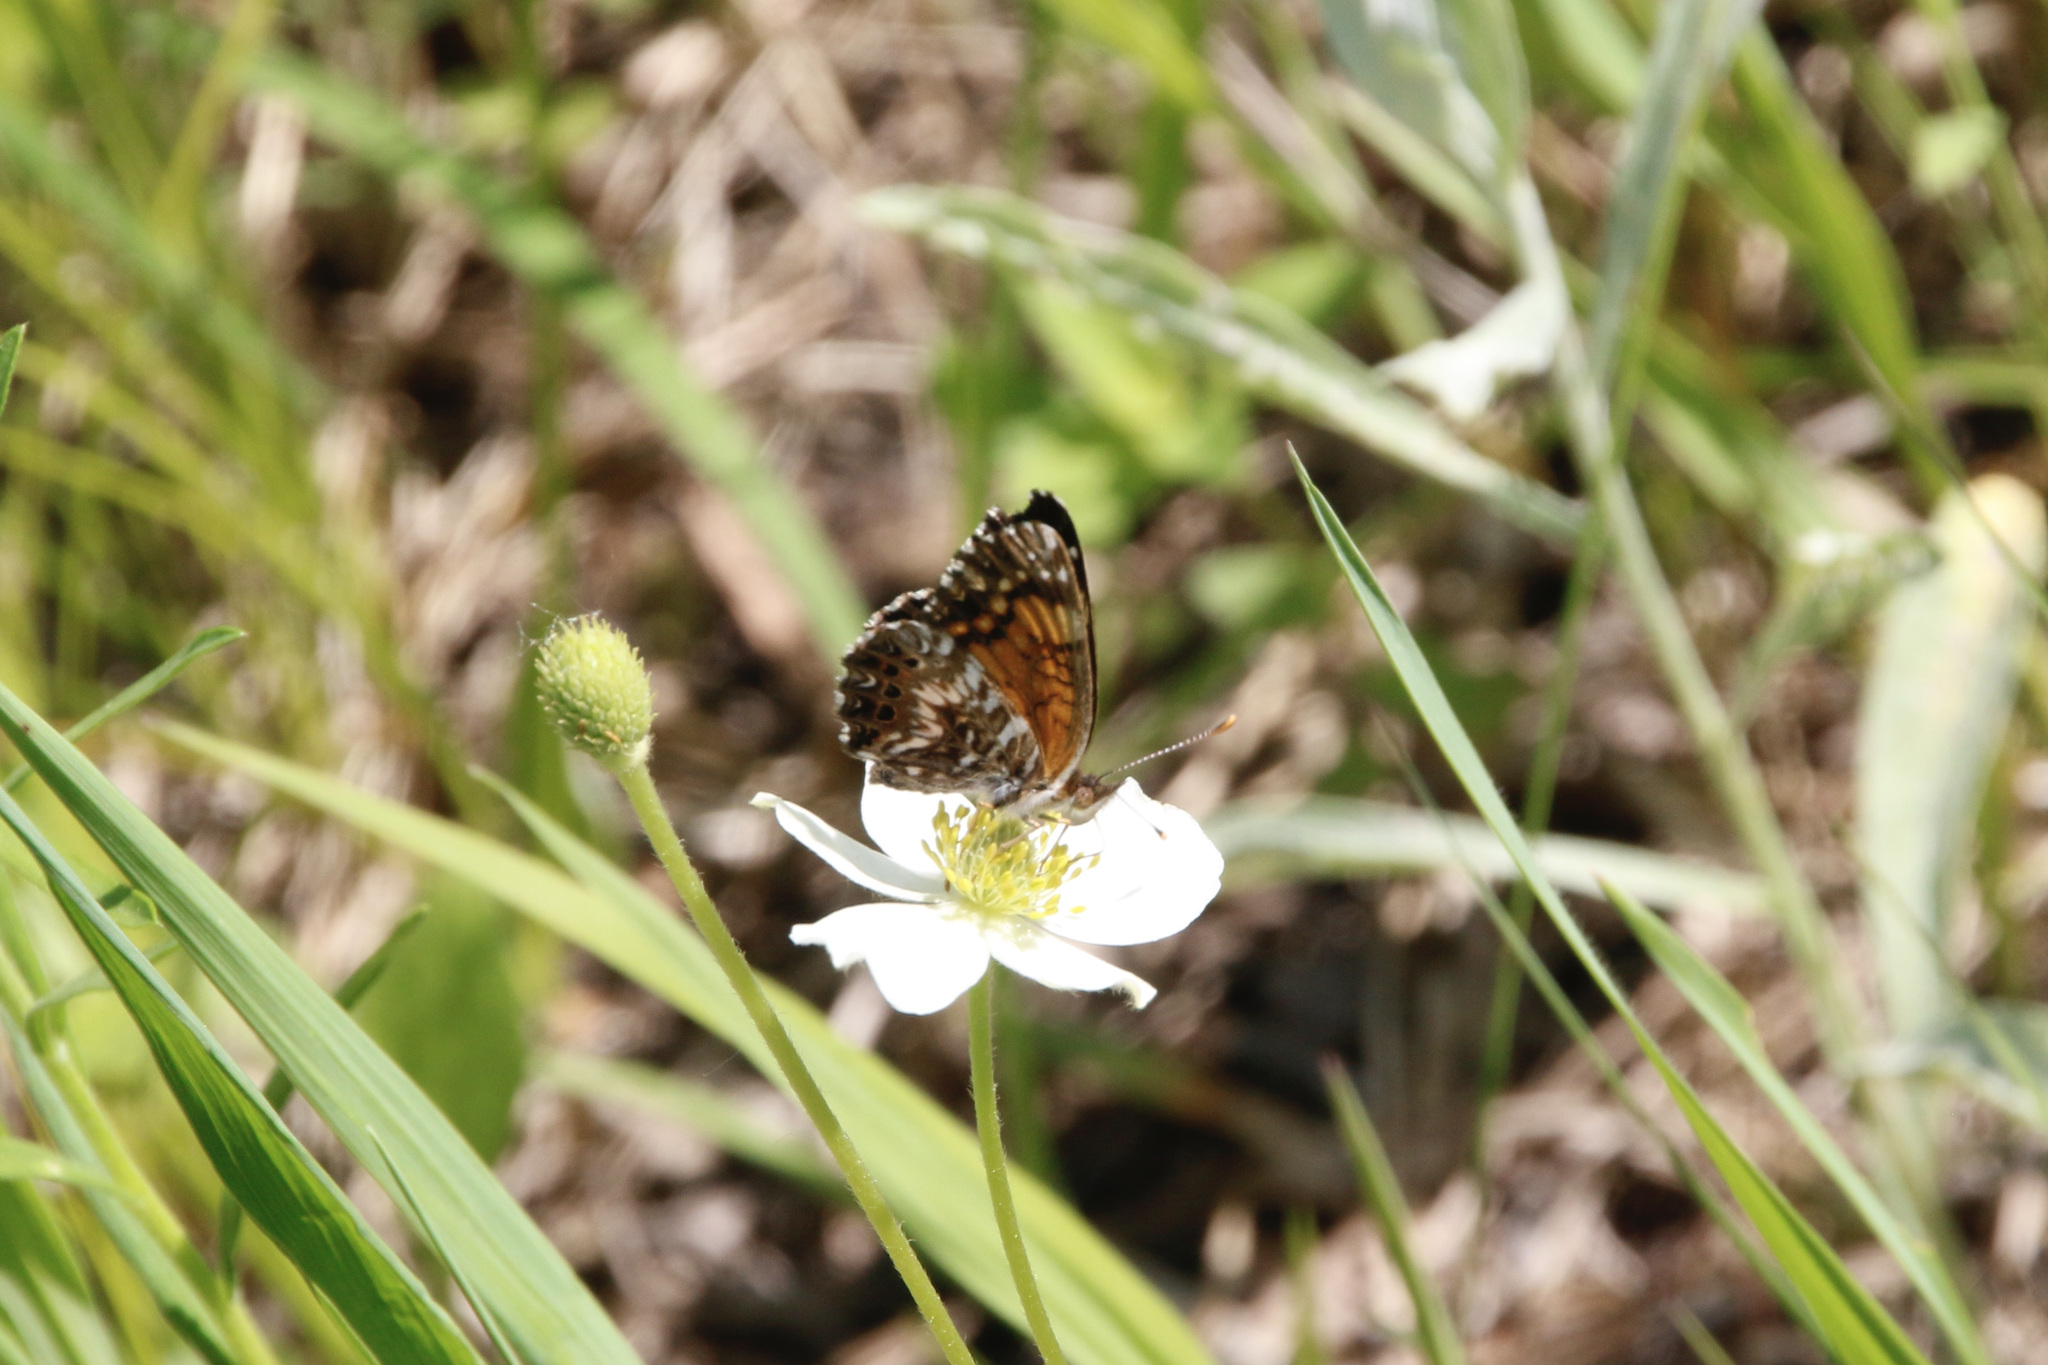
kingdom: Animalia
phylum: Arthropoda
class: Insecta
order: Lepidoptera
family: Nymphalidae
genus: Chlosyne
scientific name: Chlosyne gorgone
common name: Gorgone checkerspot
